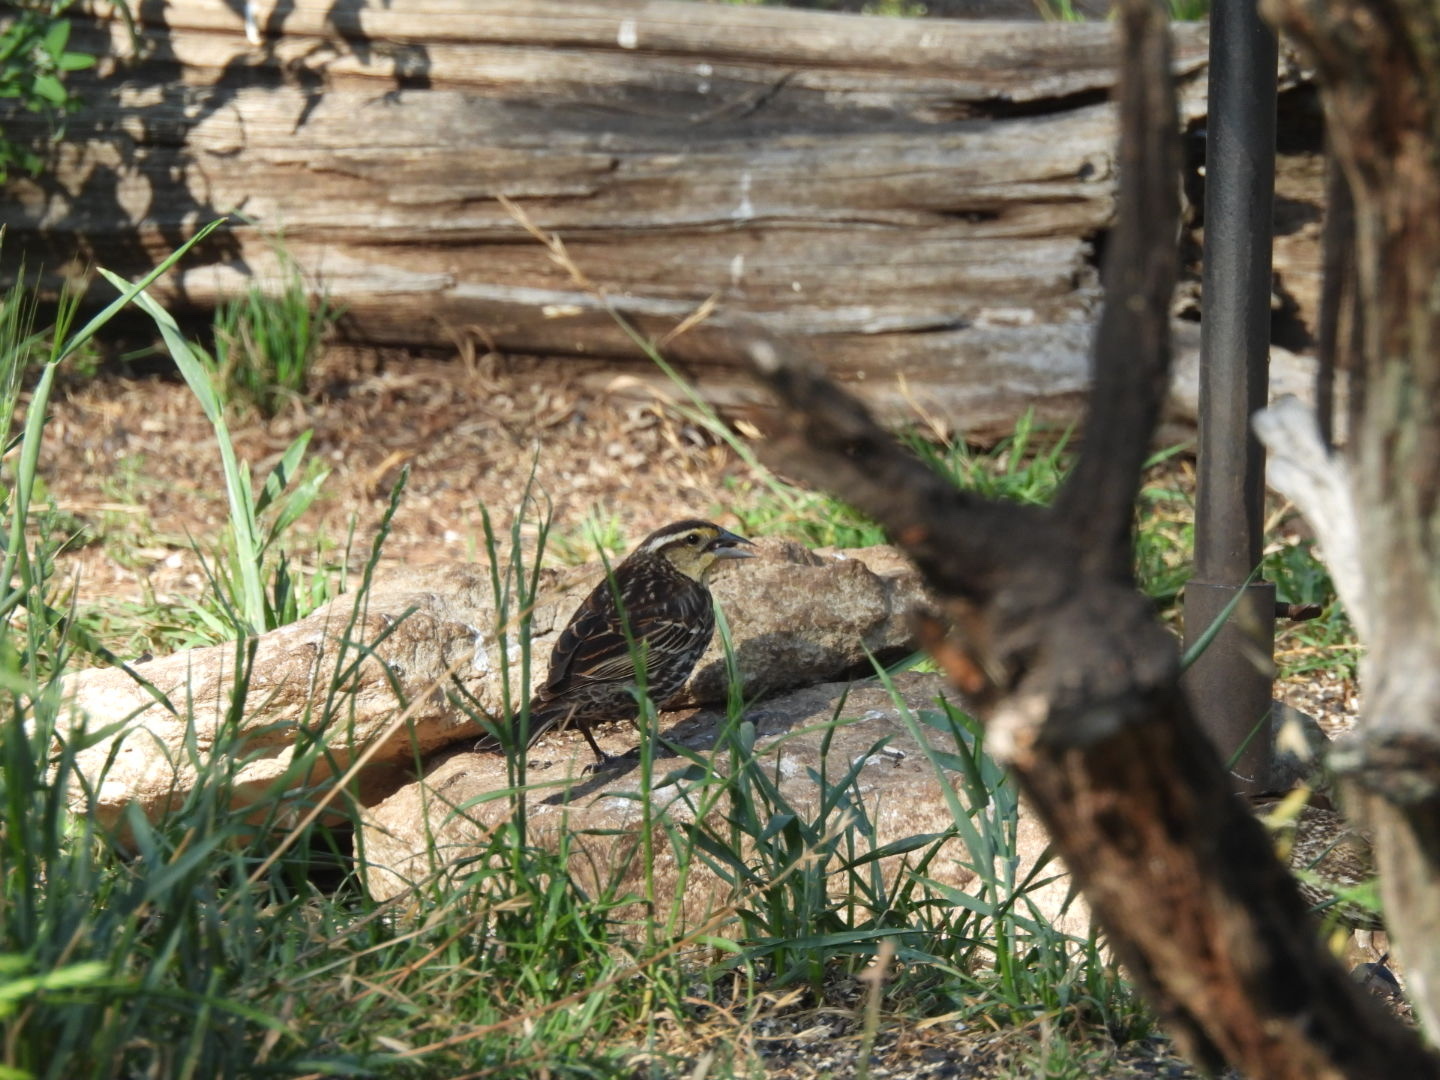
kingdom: Animalia
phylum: Chordata
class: Aves
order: Passeriformes
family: Icteridae
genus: Agelaius
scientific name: Agelaius phoeniceus
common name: Red-winged blackbird
